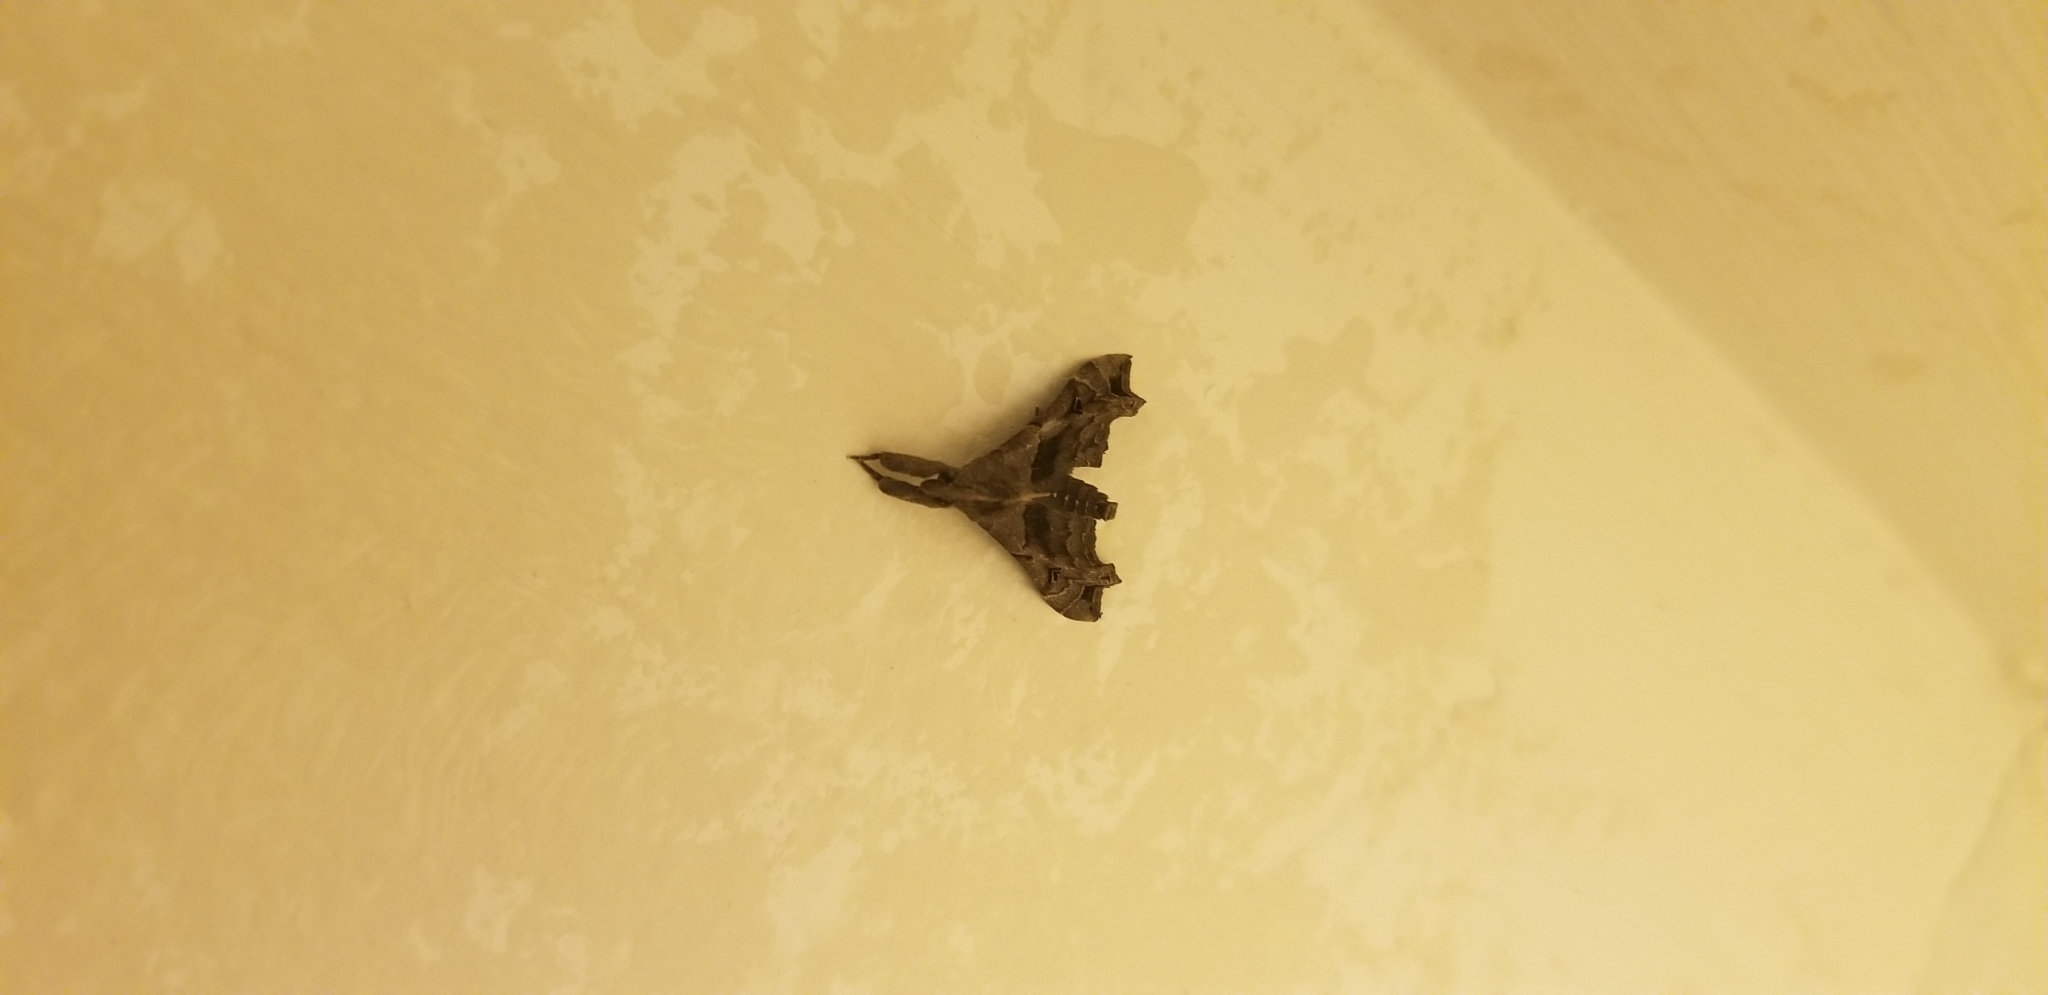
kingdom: Animalia
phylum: Arthropoda
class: Insecta
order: Lepidoptera
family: Erebidae
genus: Palthis
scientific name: Palthis asopialis
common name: Faint-spotted palthis moth
